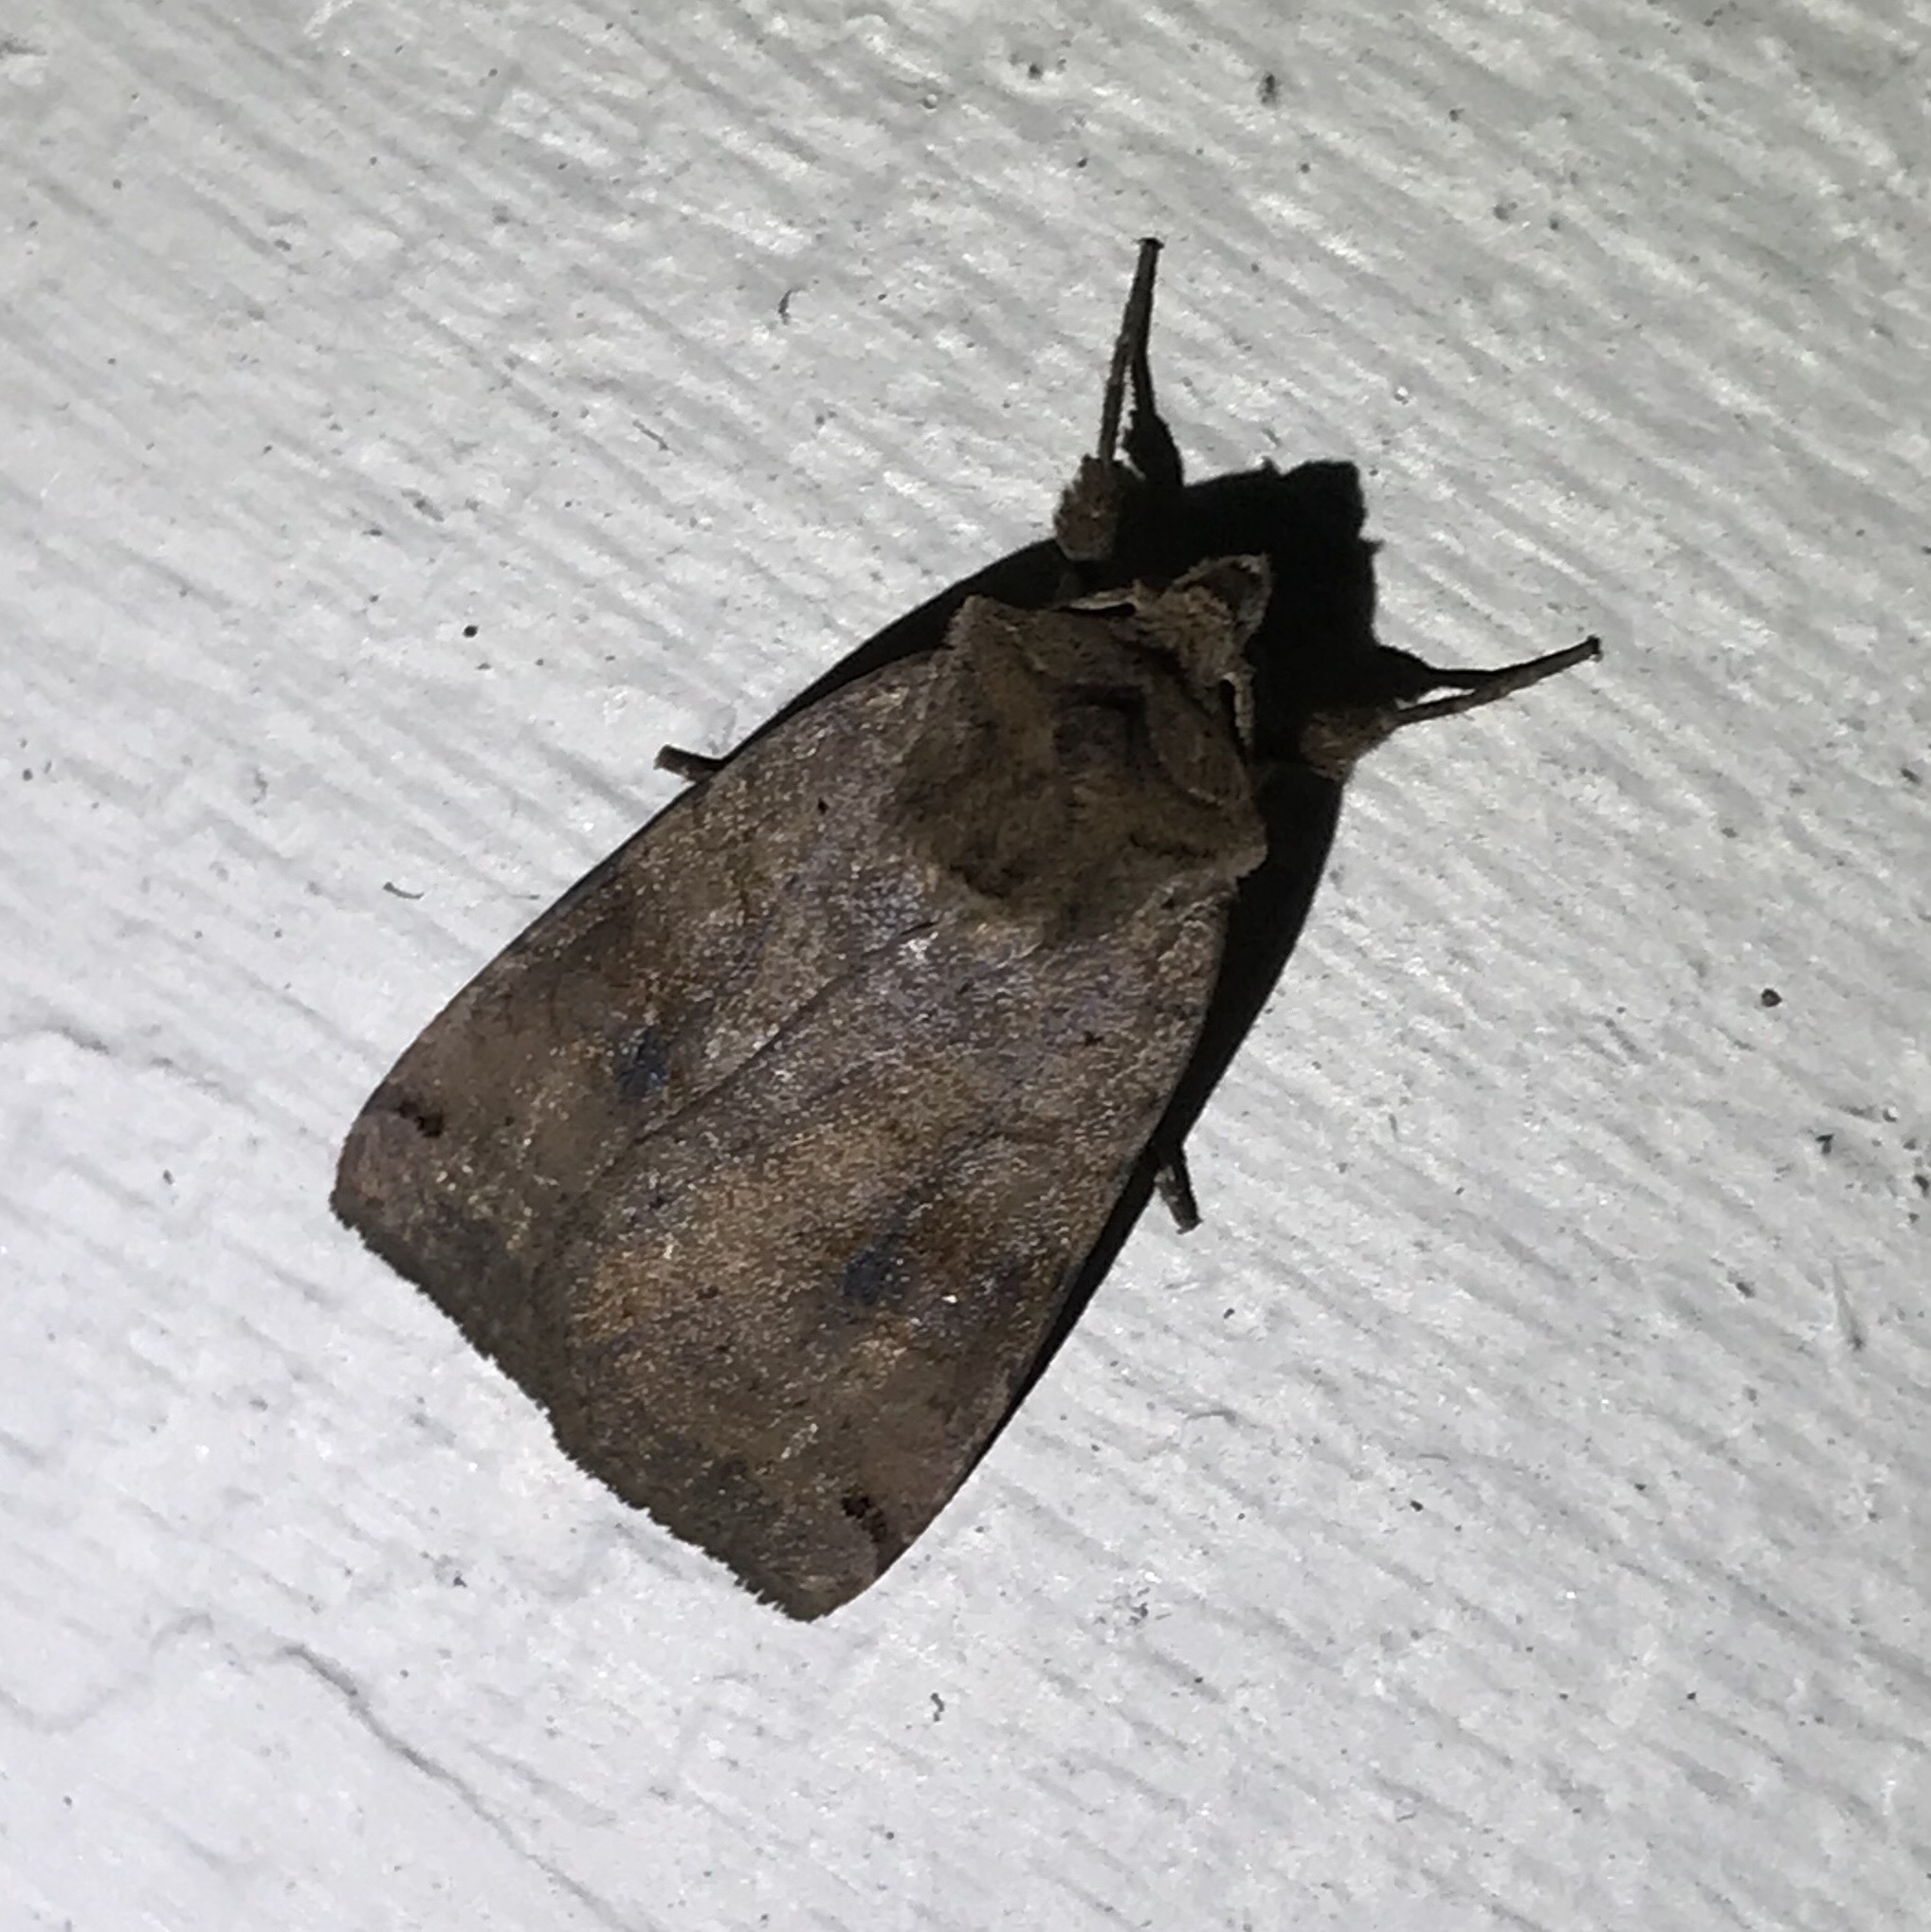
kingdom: Animalia
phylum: Arthropoda
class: Insecta
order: Lepidoptera
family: Noctuidae
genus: Xestia
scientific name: Xestia smithii
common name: Smith's dart
